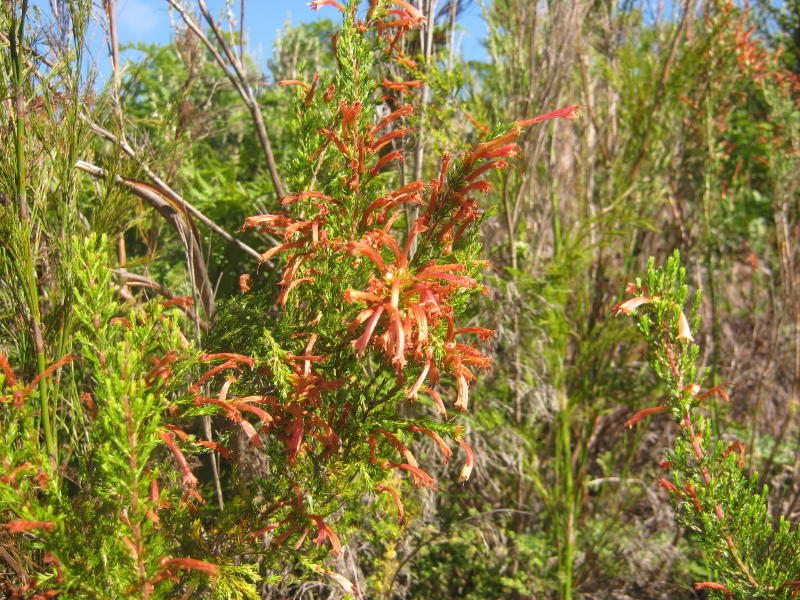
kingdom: Plantae
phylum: Tracheophyta
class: Magnoliopsida
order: Ericales
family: Ericaceae
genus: Erica
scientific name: Erica curviflora
